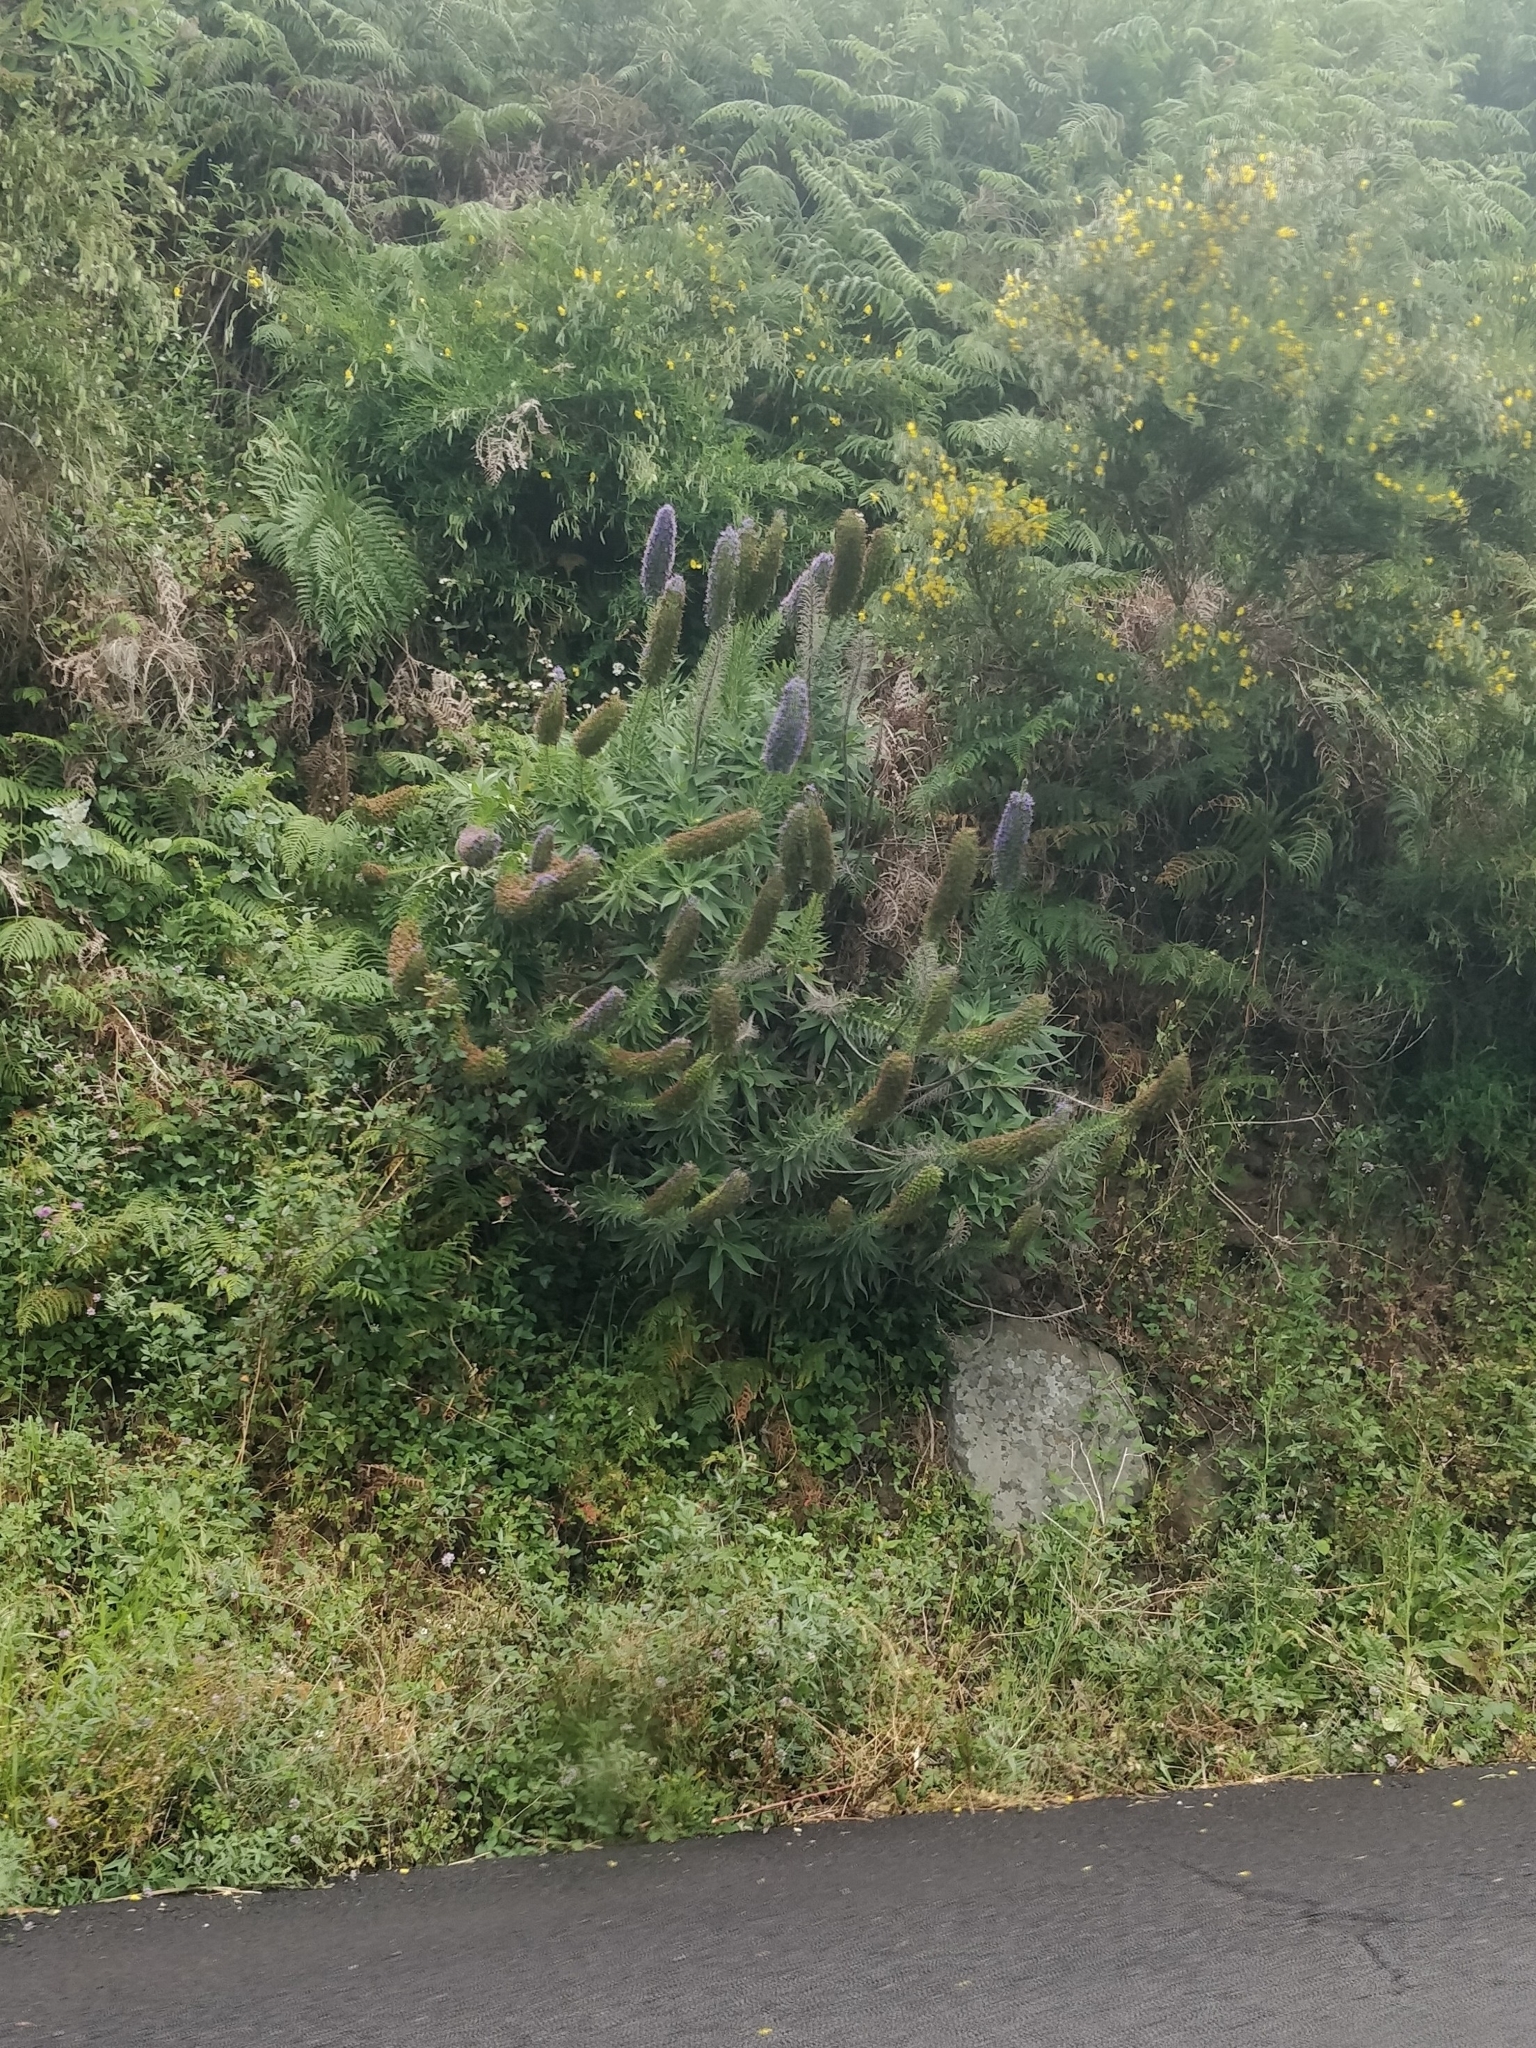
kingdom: Plantae
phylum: Tracheophyta
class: Magnoliopsida
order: Boraginales
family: Boraginaceae
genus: Echium
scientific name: Echium candicans
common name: Pride of madeira
